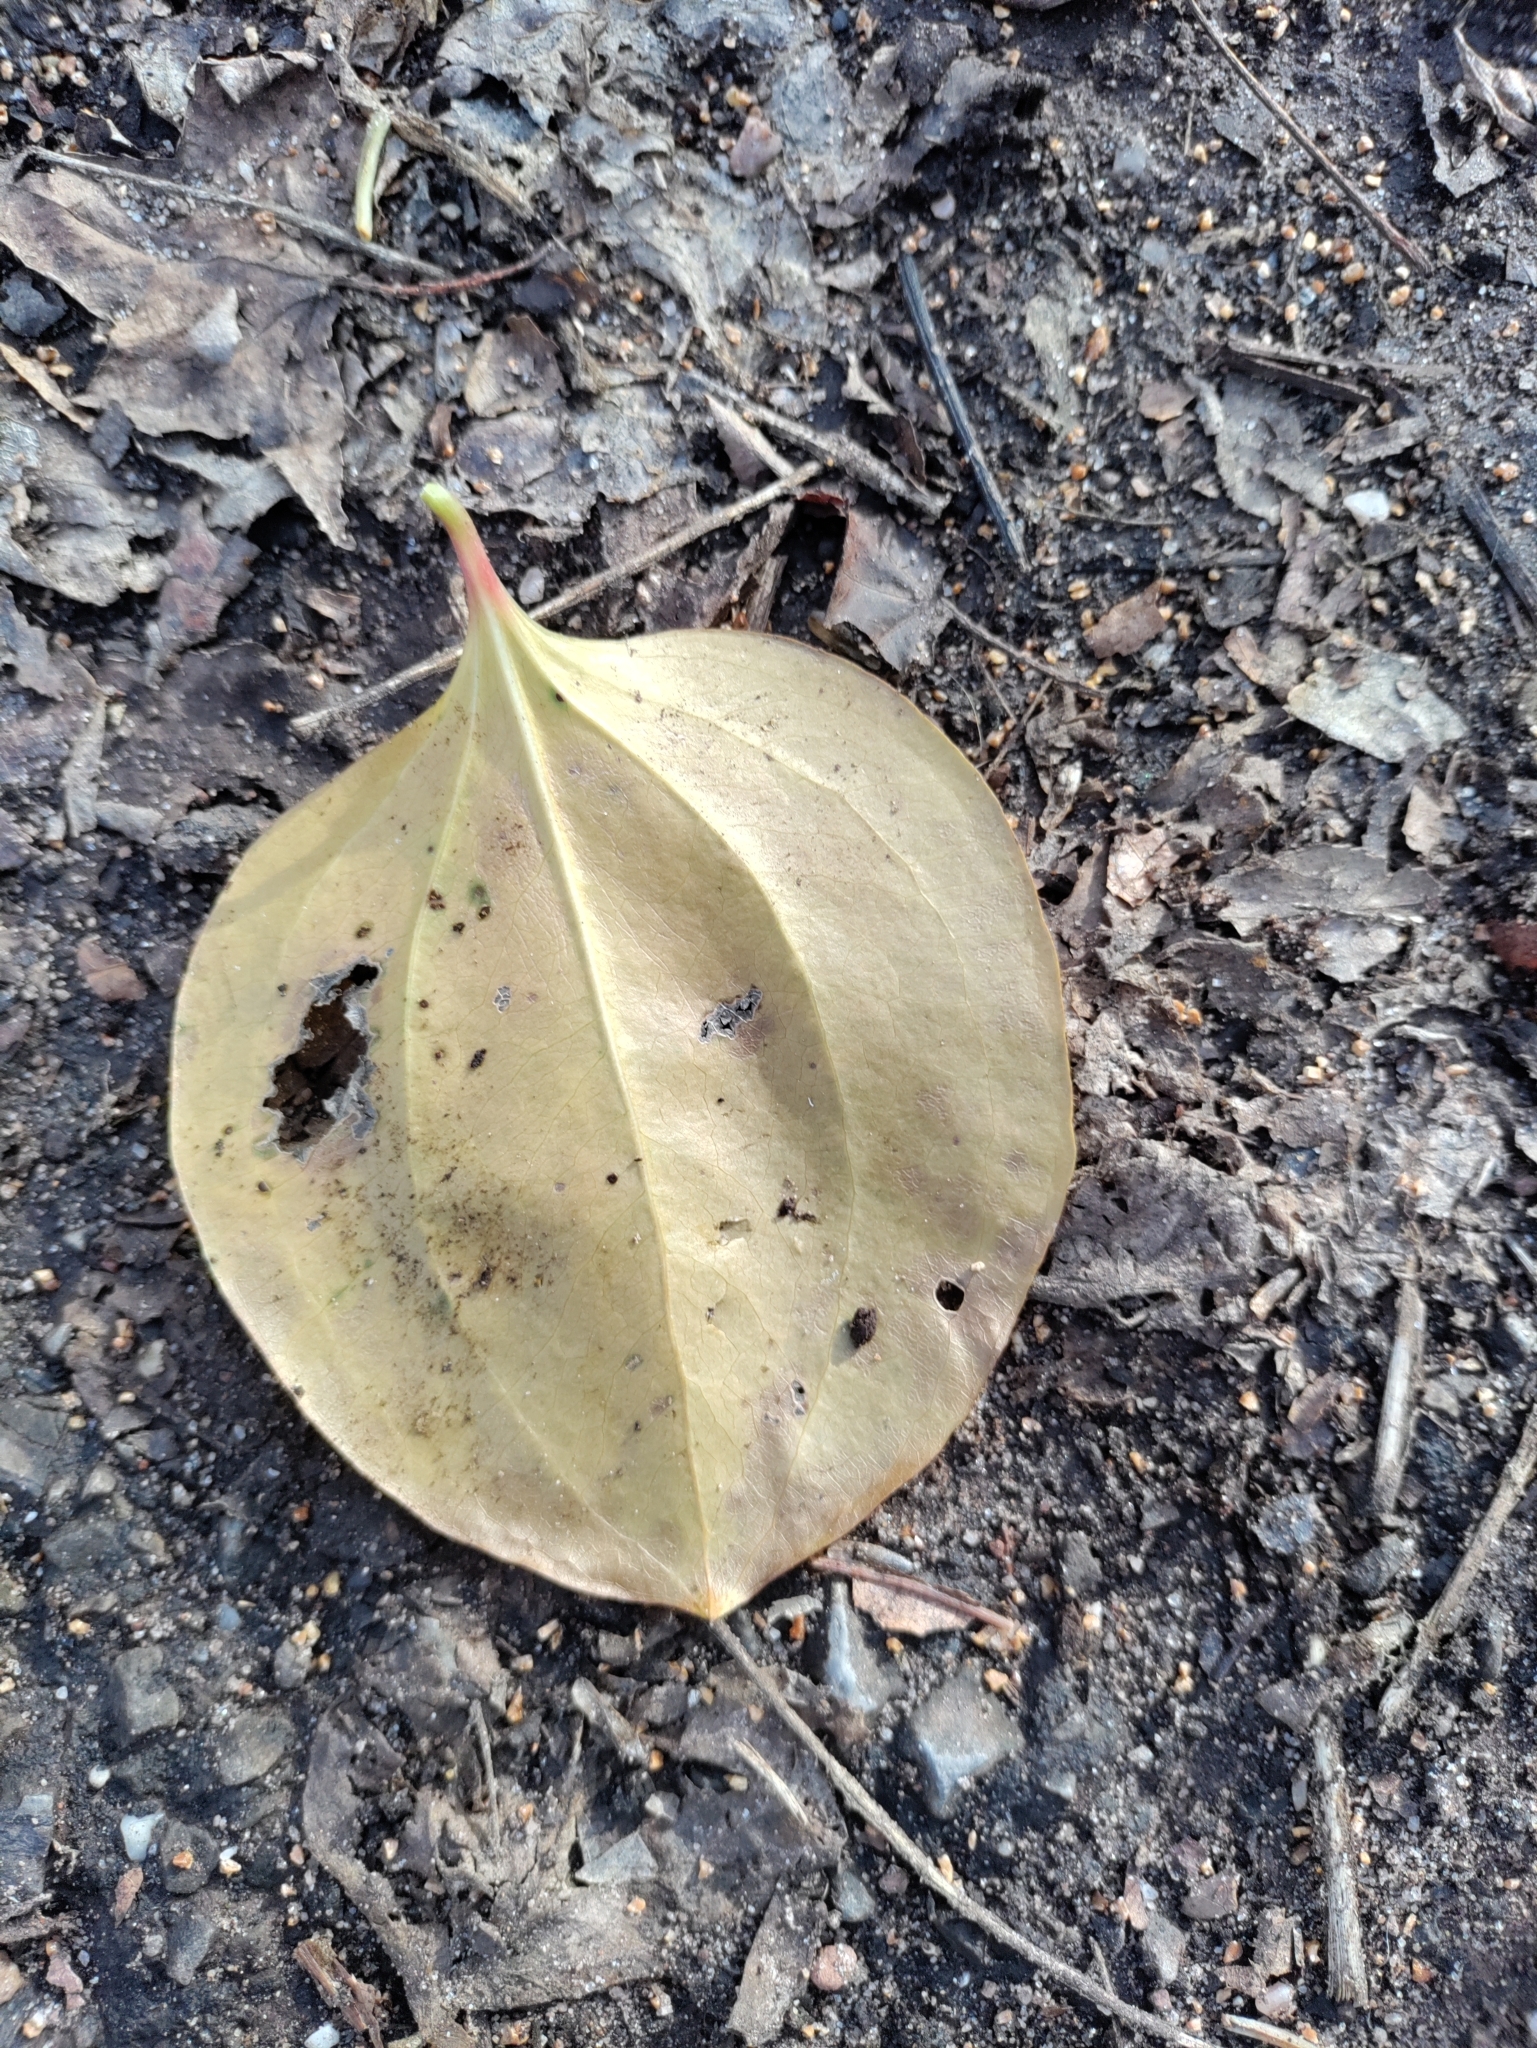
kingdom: Plantae
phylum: Tracheophyta
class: Liliopsida
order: Liliales
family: Smilacaceae
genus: Smilax
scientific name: Smilax rotundifolia
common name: Bullbriar
